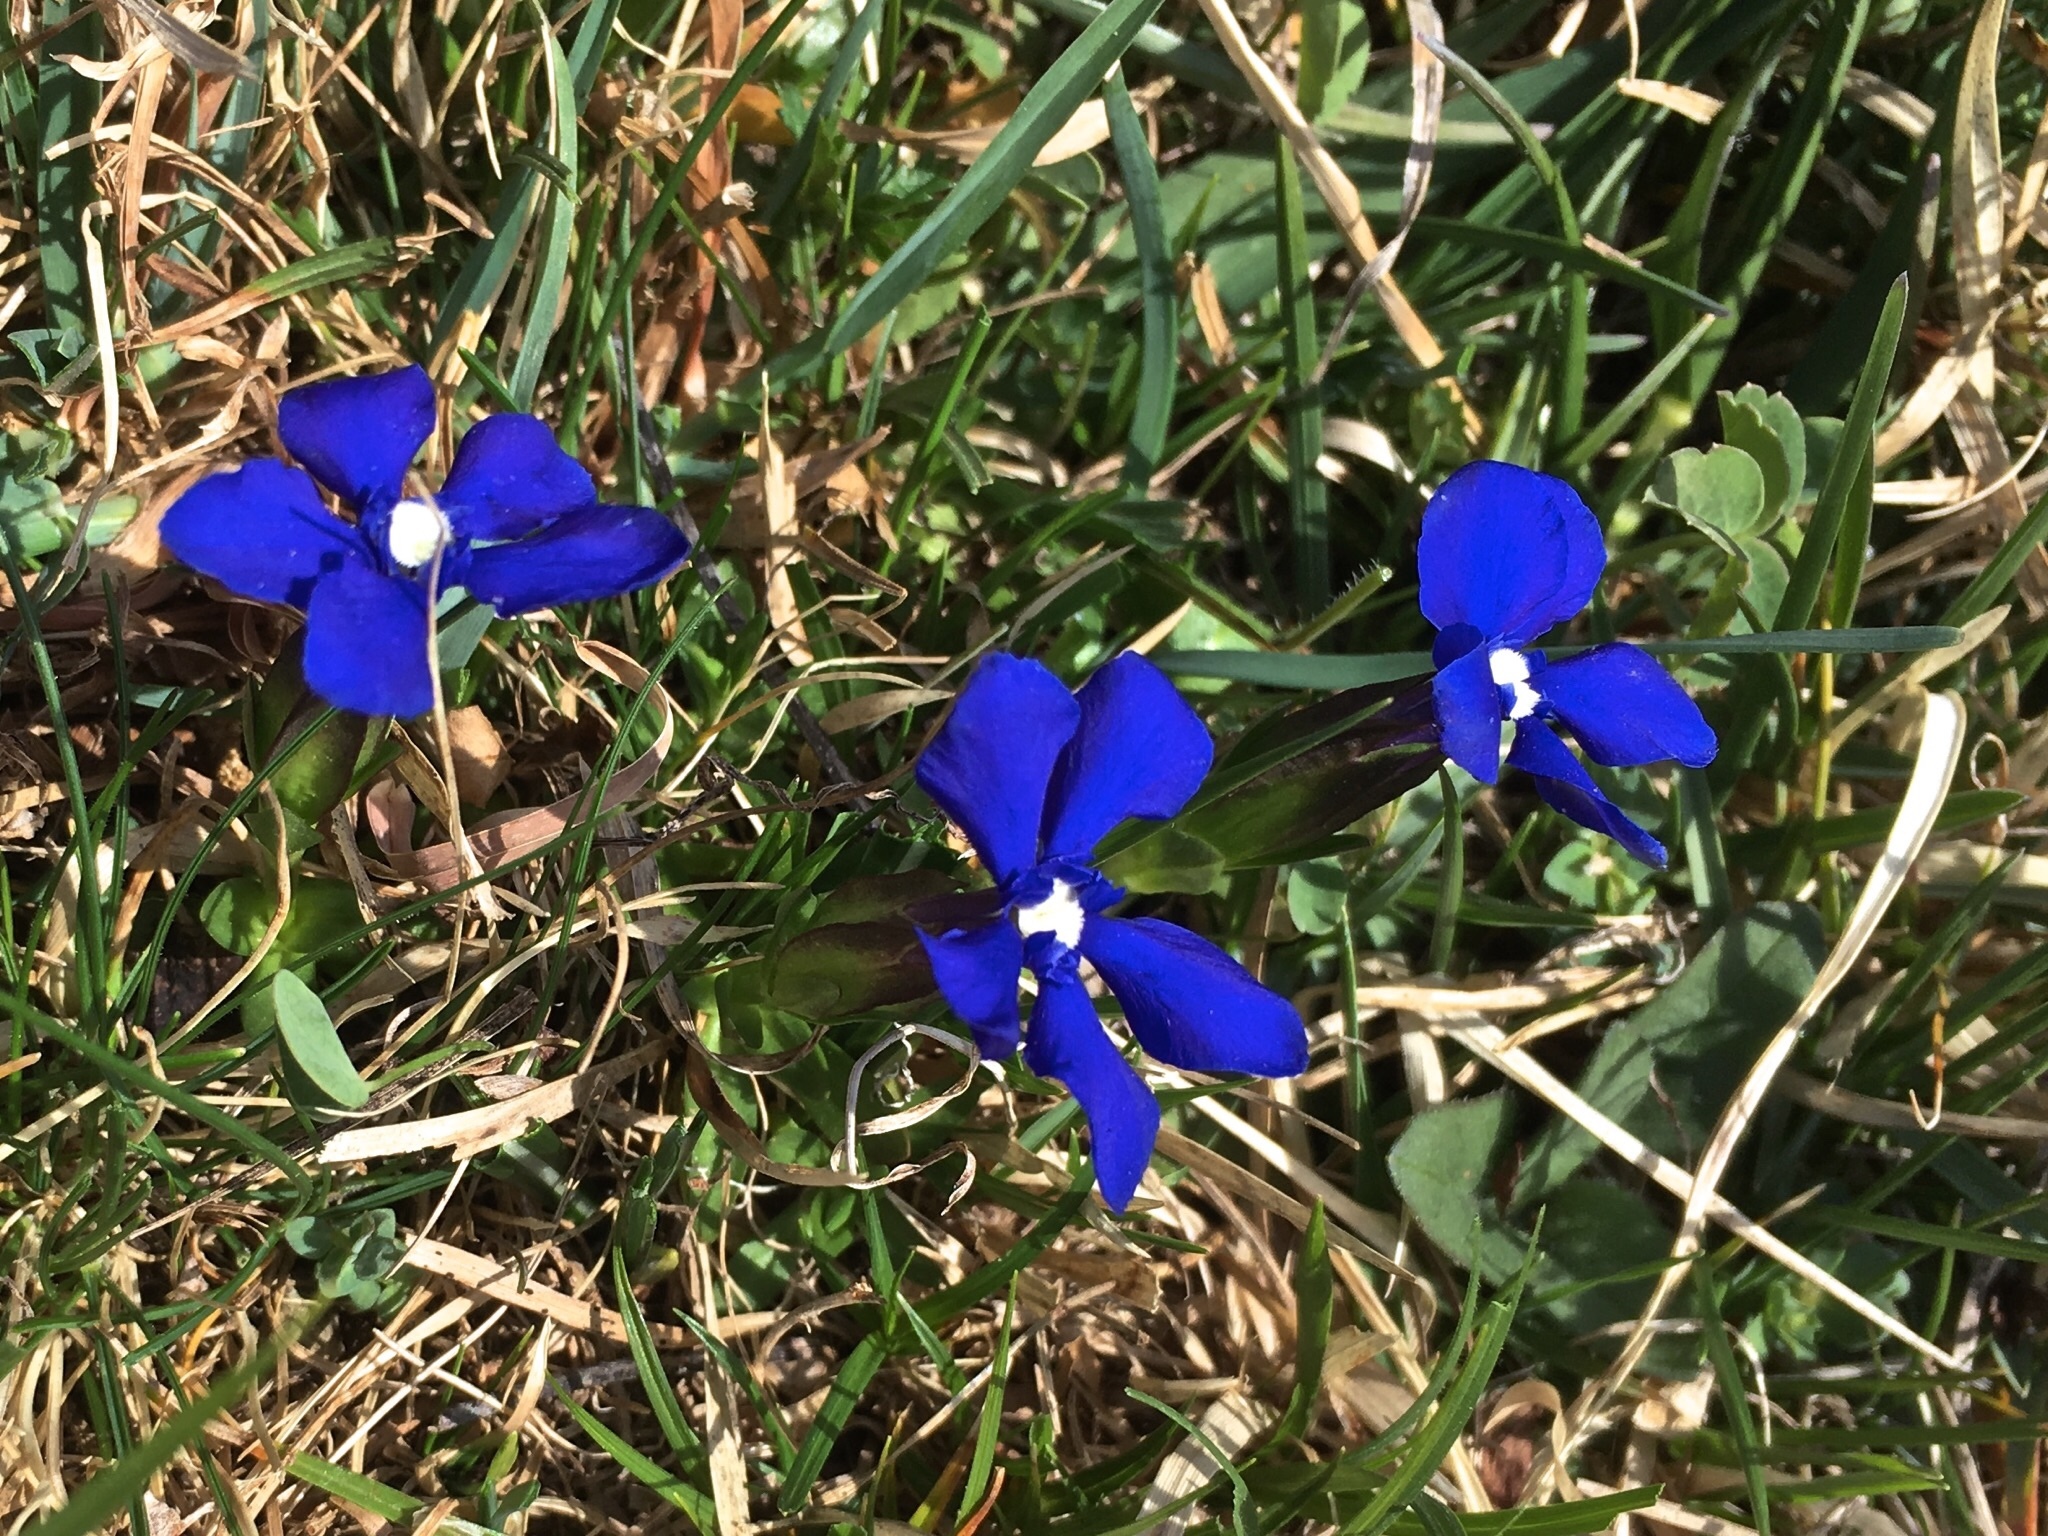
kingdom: Plantae
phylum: Tracheophyta
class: Magnoliopsida
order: Gentianales
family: Gentianaceae
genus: Gentiana
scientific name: Gentiana verna
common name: Spring gentian
